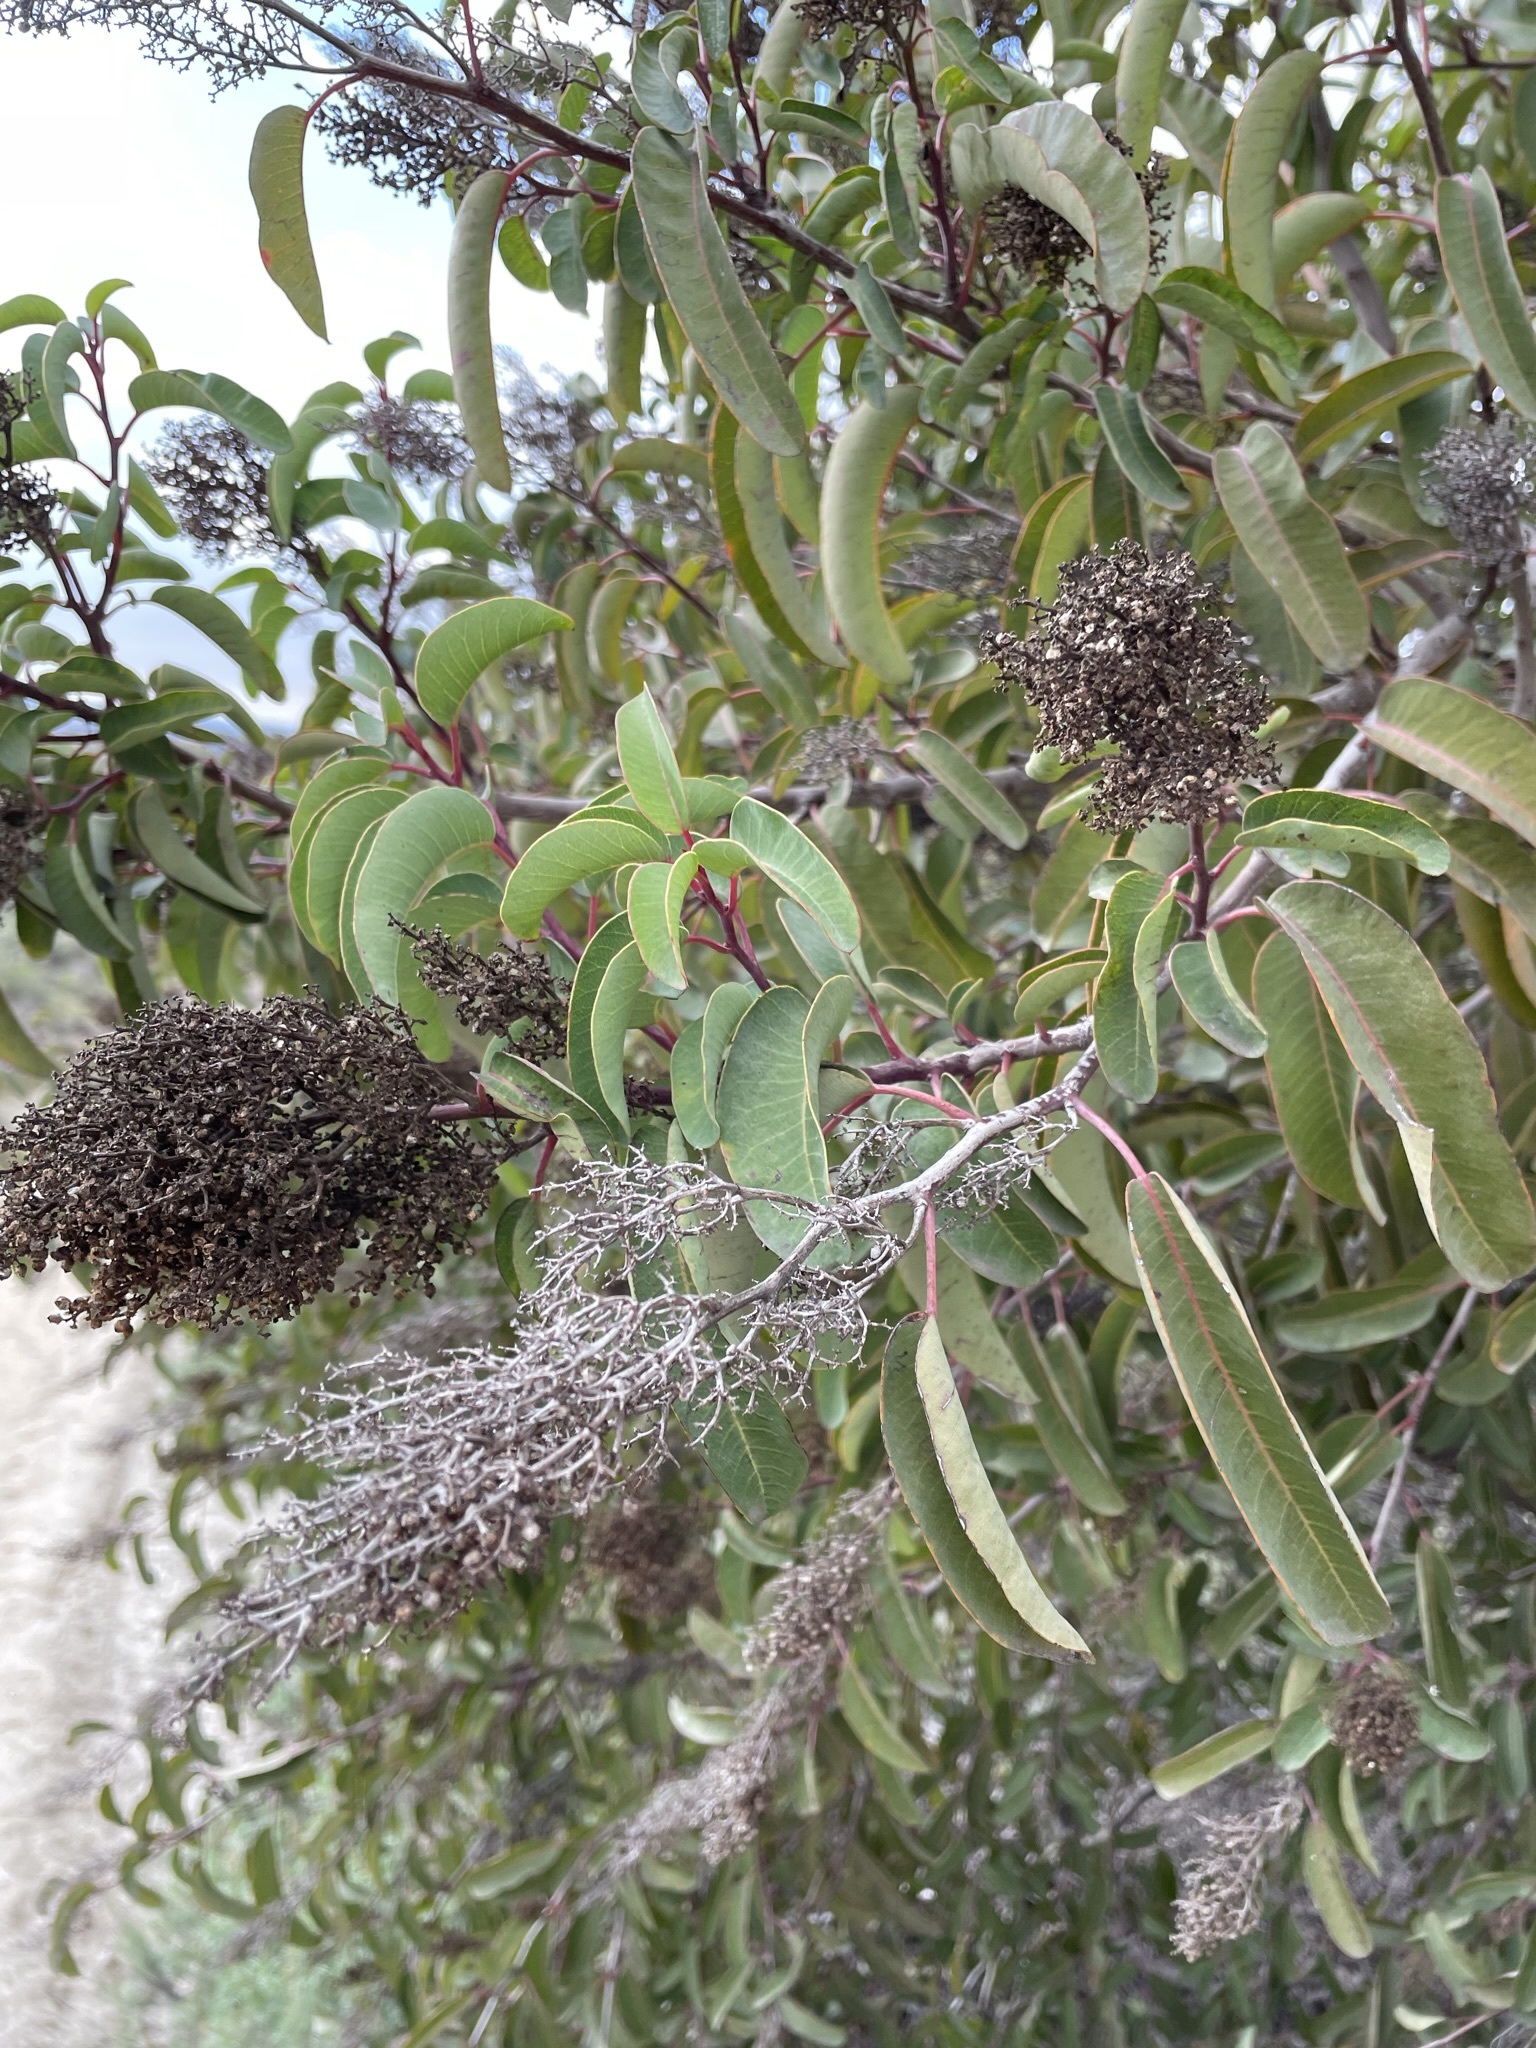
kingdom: Plantae
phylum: Tracheophyta
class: Magnoliopsida
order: Sapindales
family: Anacardiaceae
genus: Malosma
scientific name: Malosma laurina
